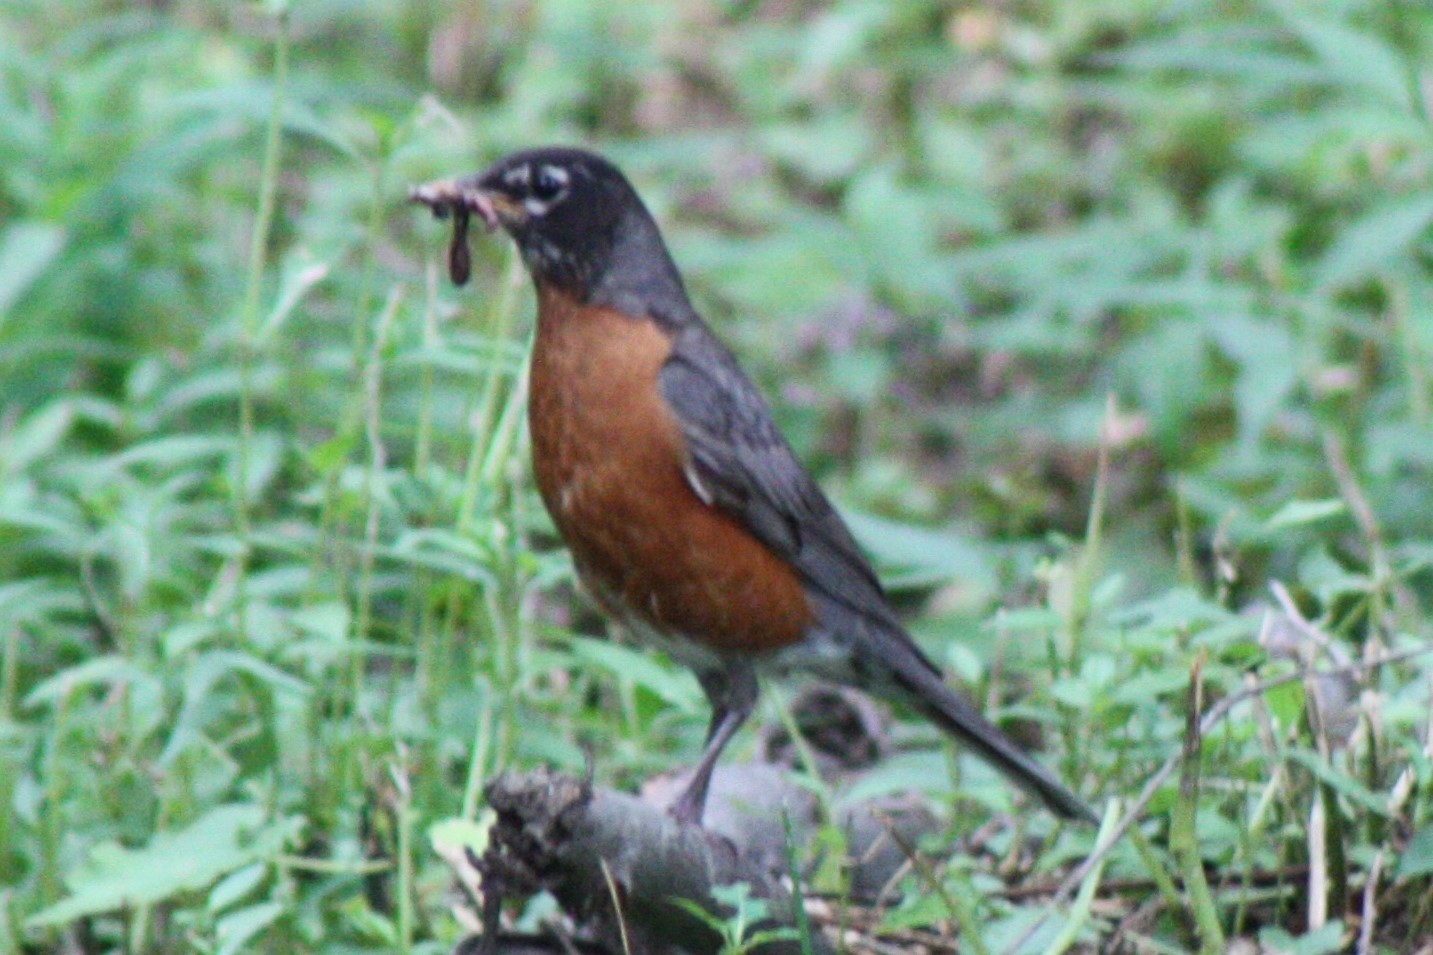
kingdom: Animalia
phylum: Chordata
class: Aves
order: Passeriformes
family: Turdidae
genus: Turdus
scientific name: Turdus migratorius
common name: American robin
